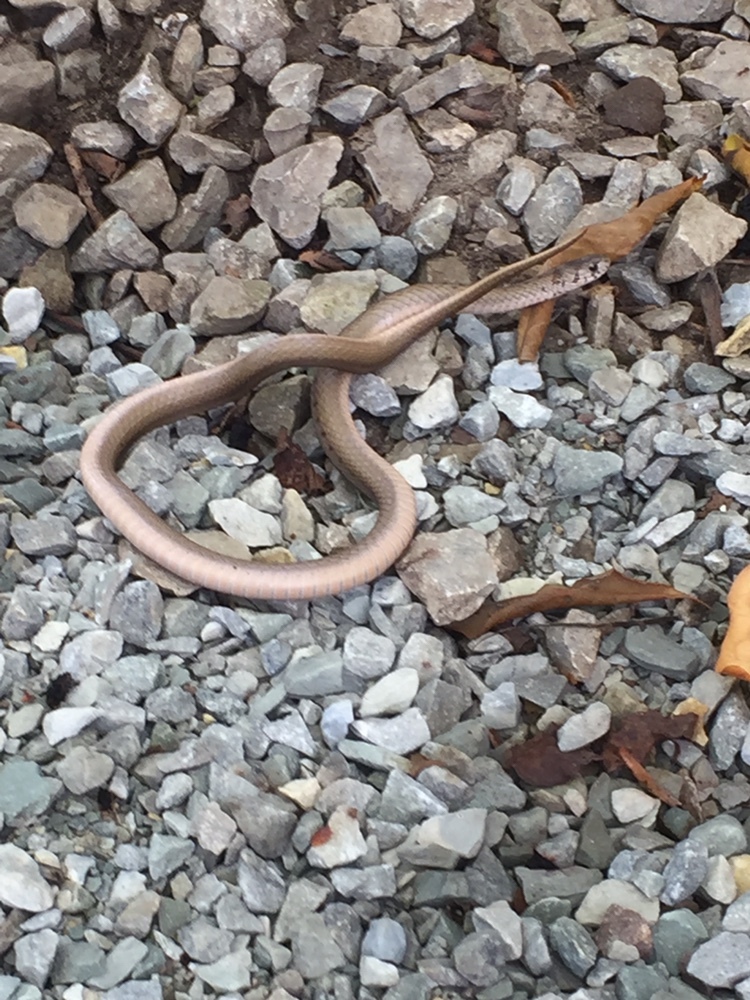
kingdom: Animalia
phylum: Chordata
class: Squamata
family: Colubridae
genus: Storeria
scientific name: Storeria dekayi
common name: (dekay’s) brown snake
